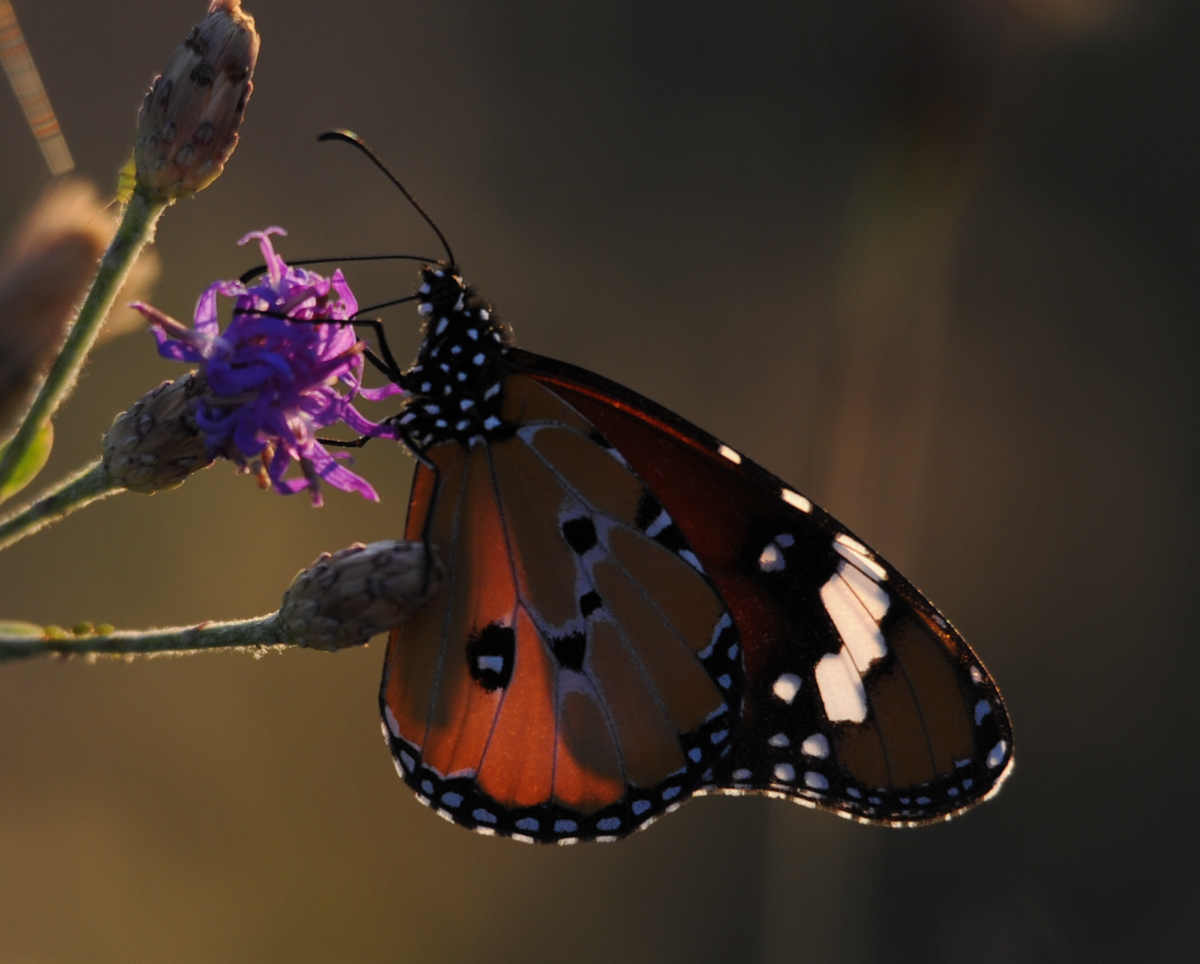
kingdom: Animalia
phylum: Arthropoda
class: Insecta
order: Lepidoptera
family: Nymphalidae
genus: Danaus
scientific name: Danaus chrysippus
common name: Plain tiger
